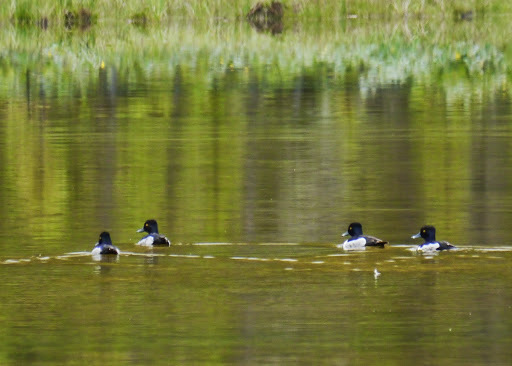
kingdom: Animalia
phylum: Chordata
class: Aves
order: Anseriformes
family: Anatidae
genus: Aythya
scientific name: Aythya collaris
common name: Ring-necked duck
